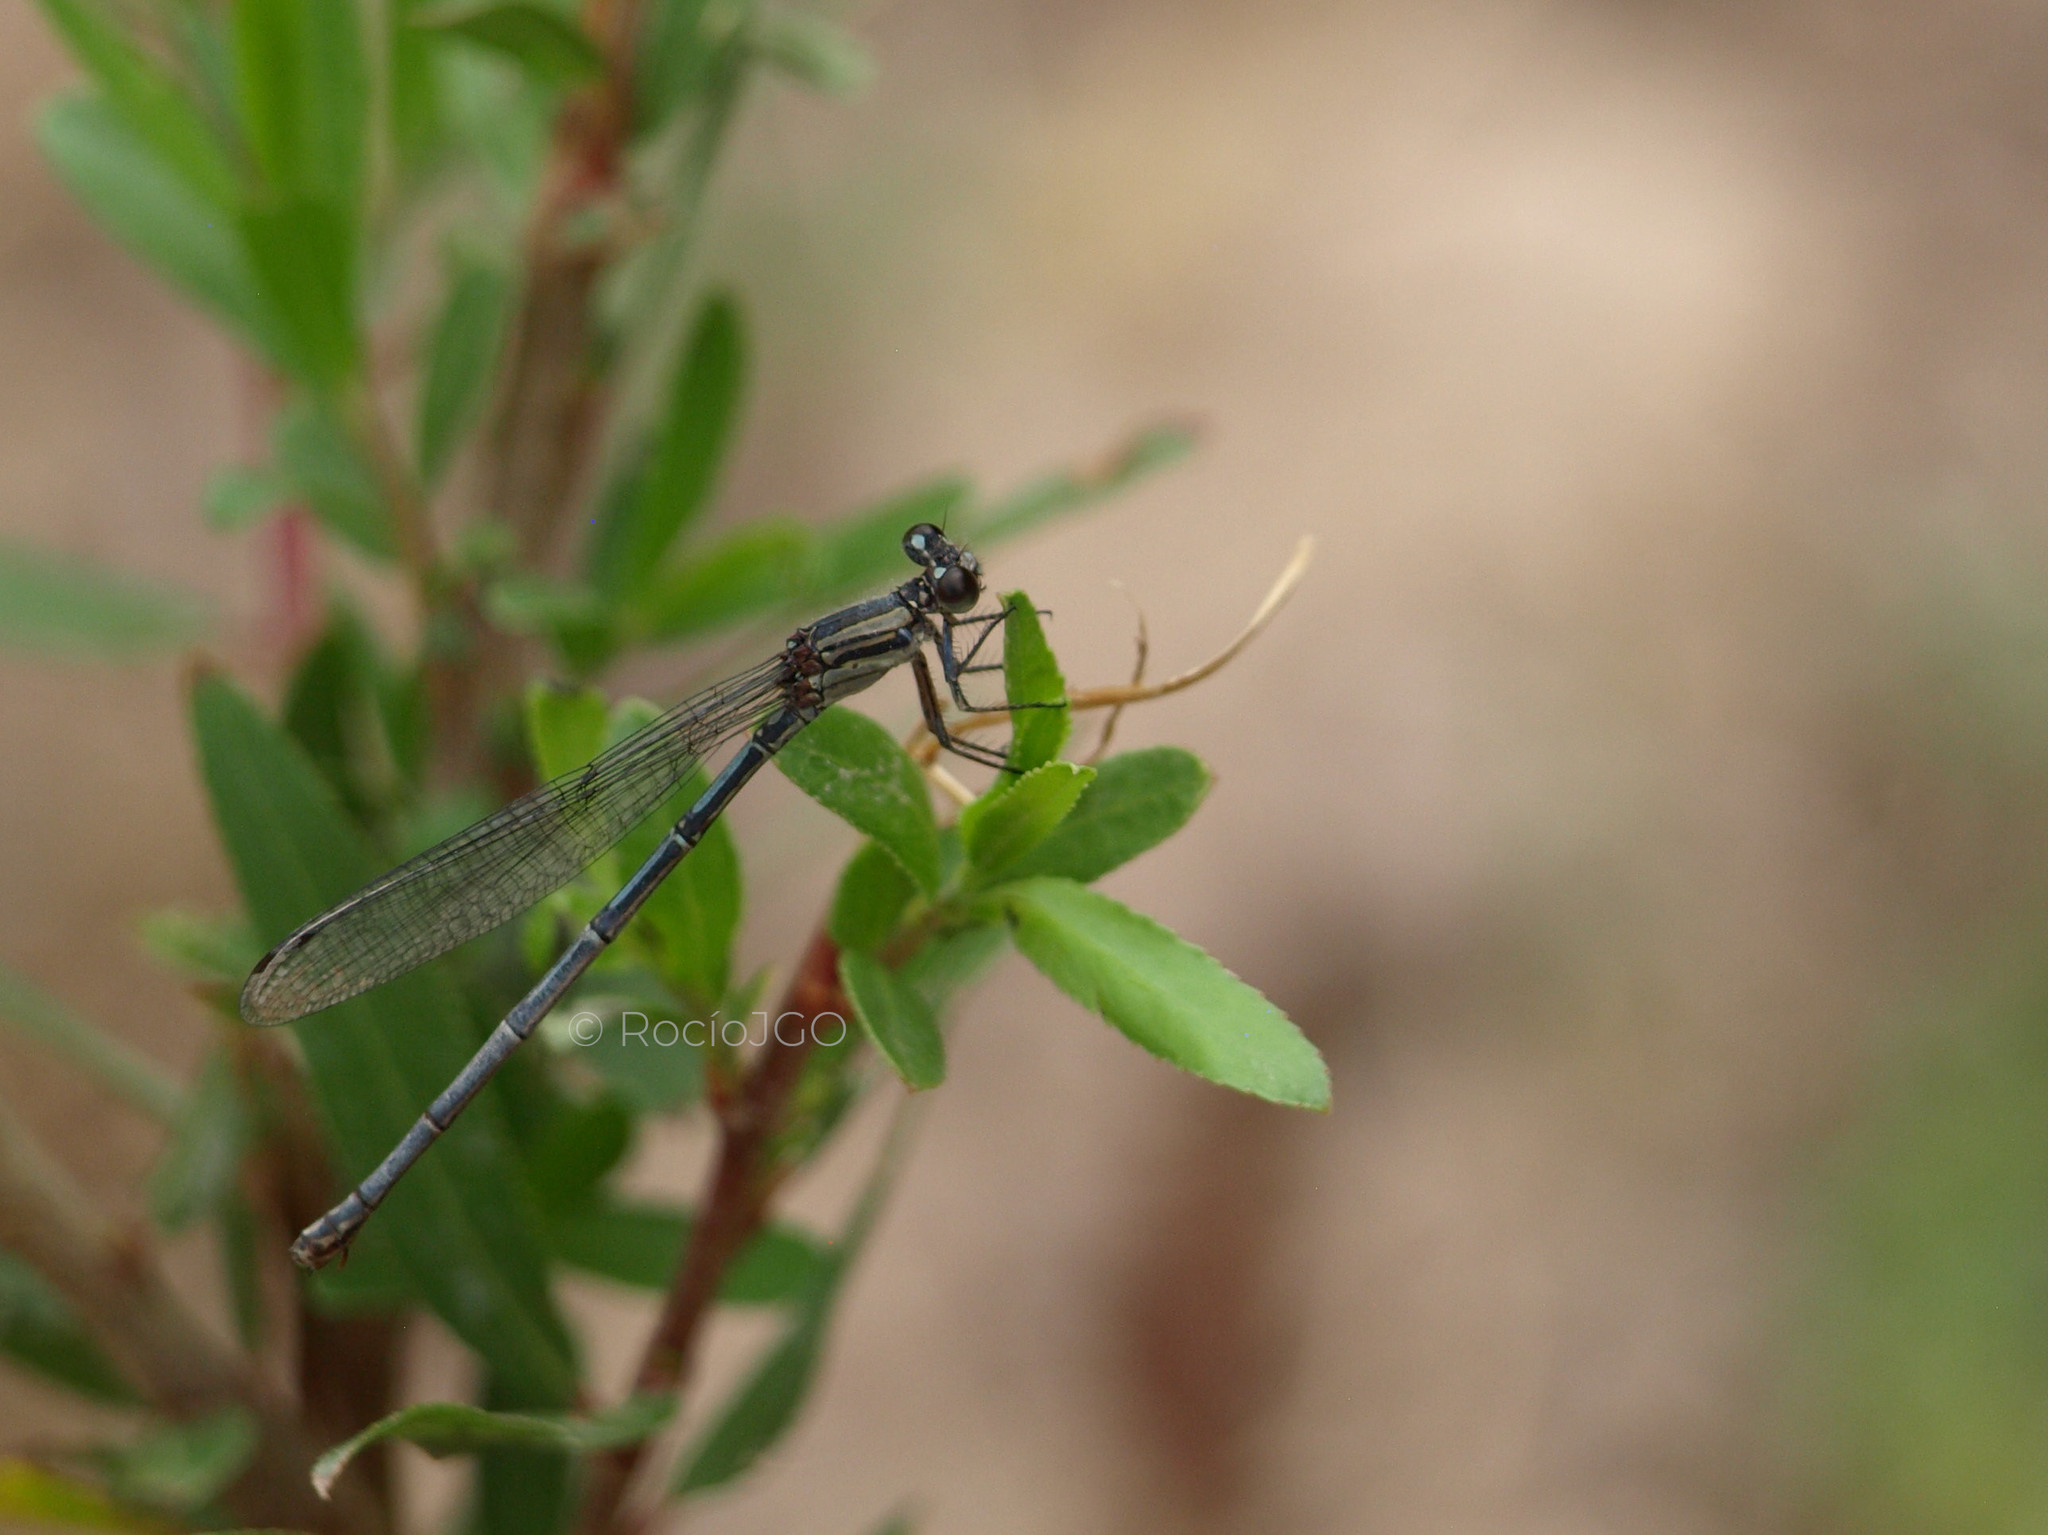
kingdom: Animalia
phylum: Arthropoda
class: Insecta
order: Odonata
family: Coenagrionidae
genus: Argia
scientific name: Argia translata
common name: Dusky dancer
